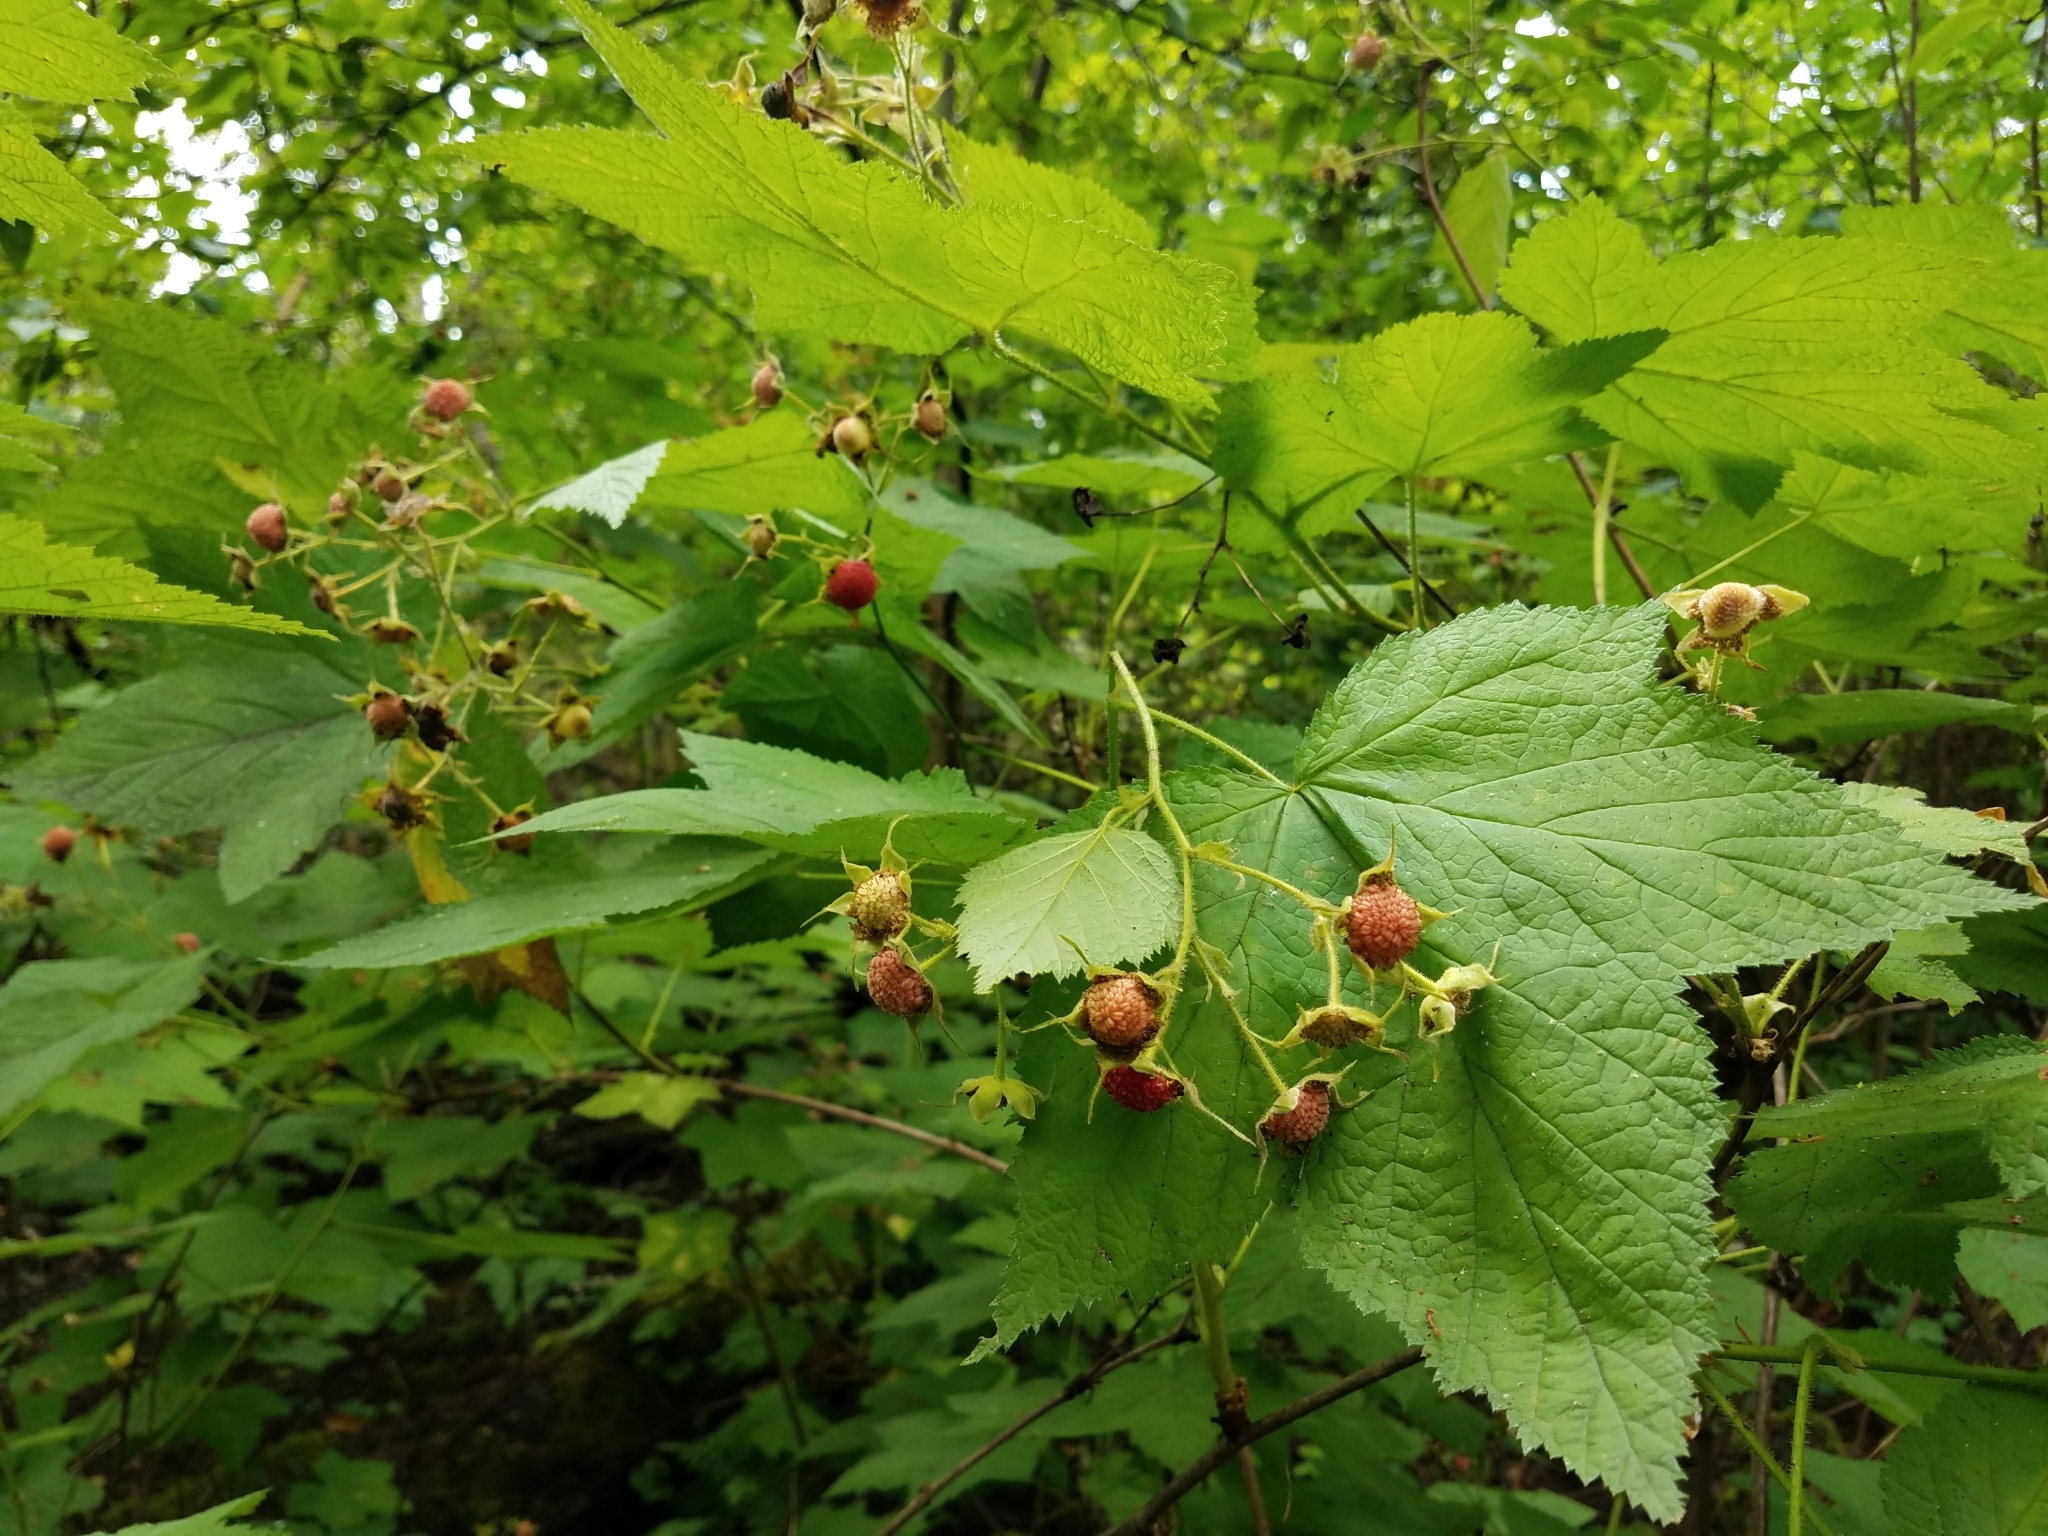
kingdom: Plantae
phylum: Tracheophyta
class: Magnoliopsida
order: Rosales
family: Rosaceae
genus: Rubus
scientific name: Rubus parviflorus
